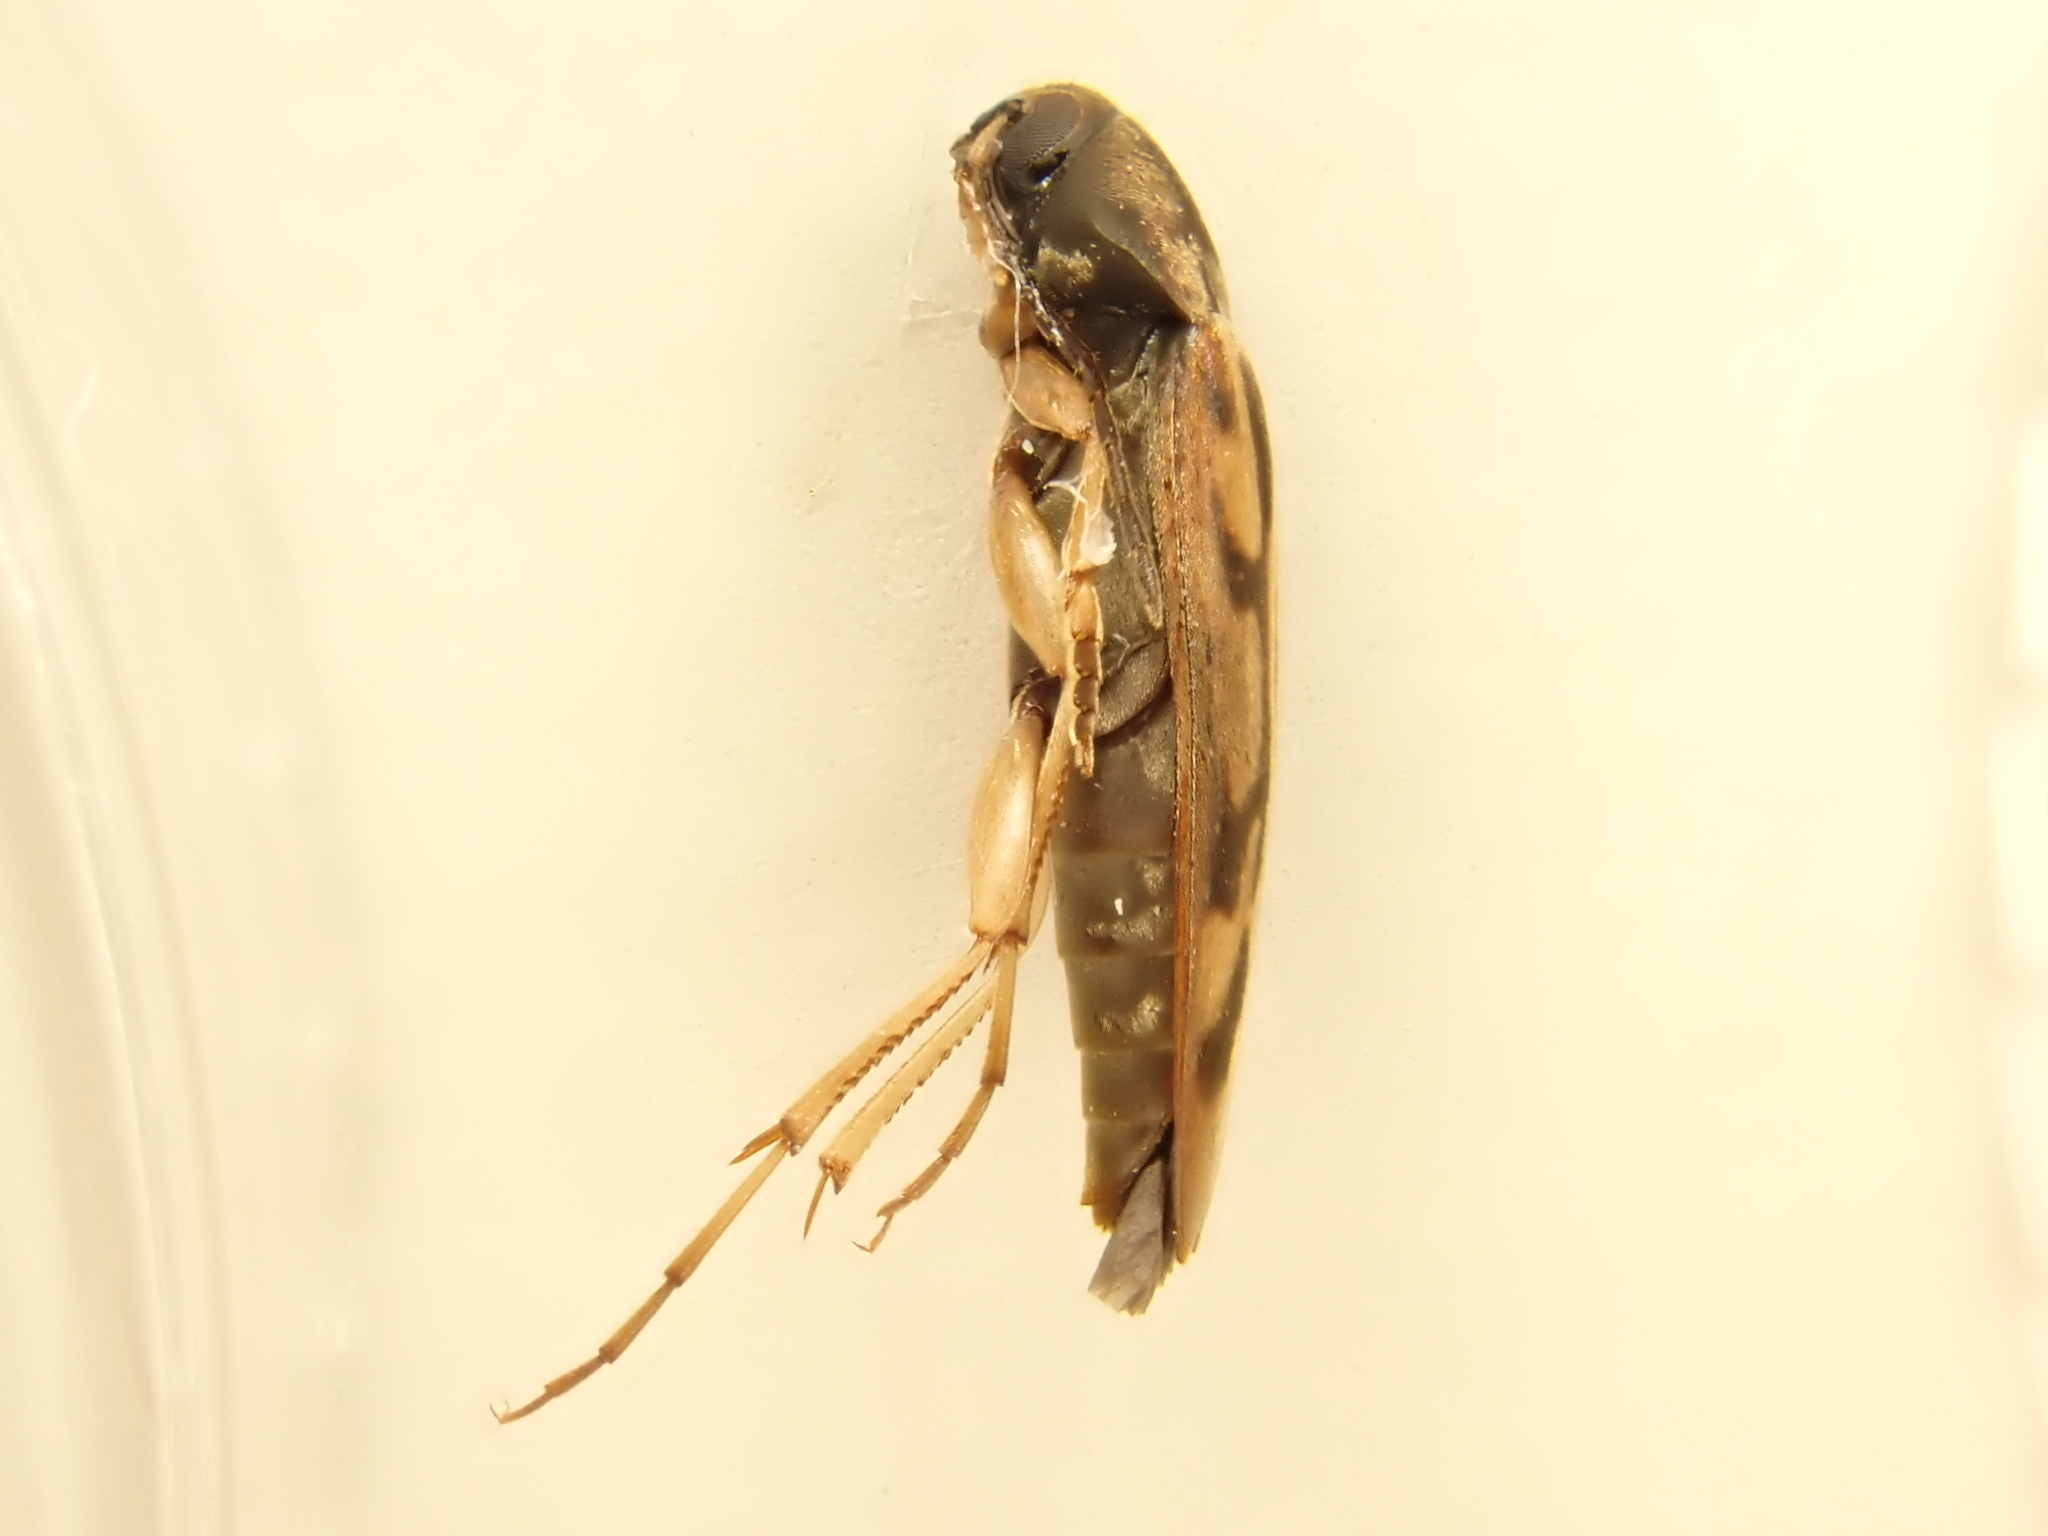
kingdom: Animalia
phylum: Arthropoda
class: Insecta
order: Neuroptera
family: Mesochrysopidae
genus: Allopterus
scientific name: Allopterus
